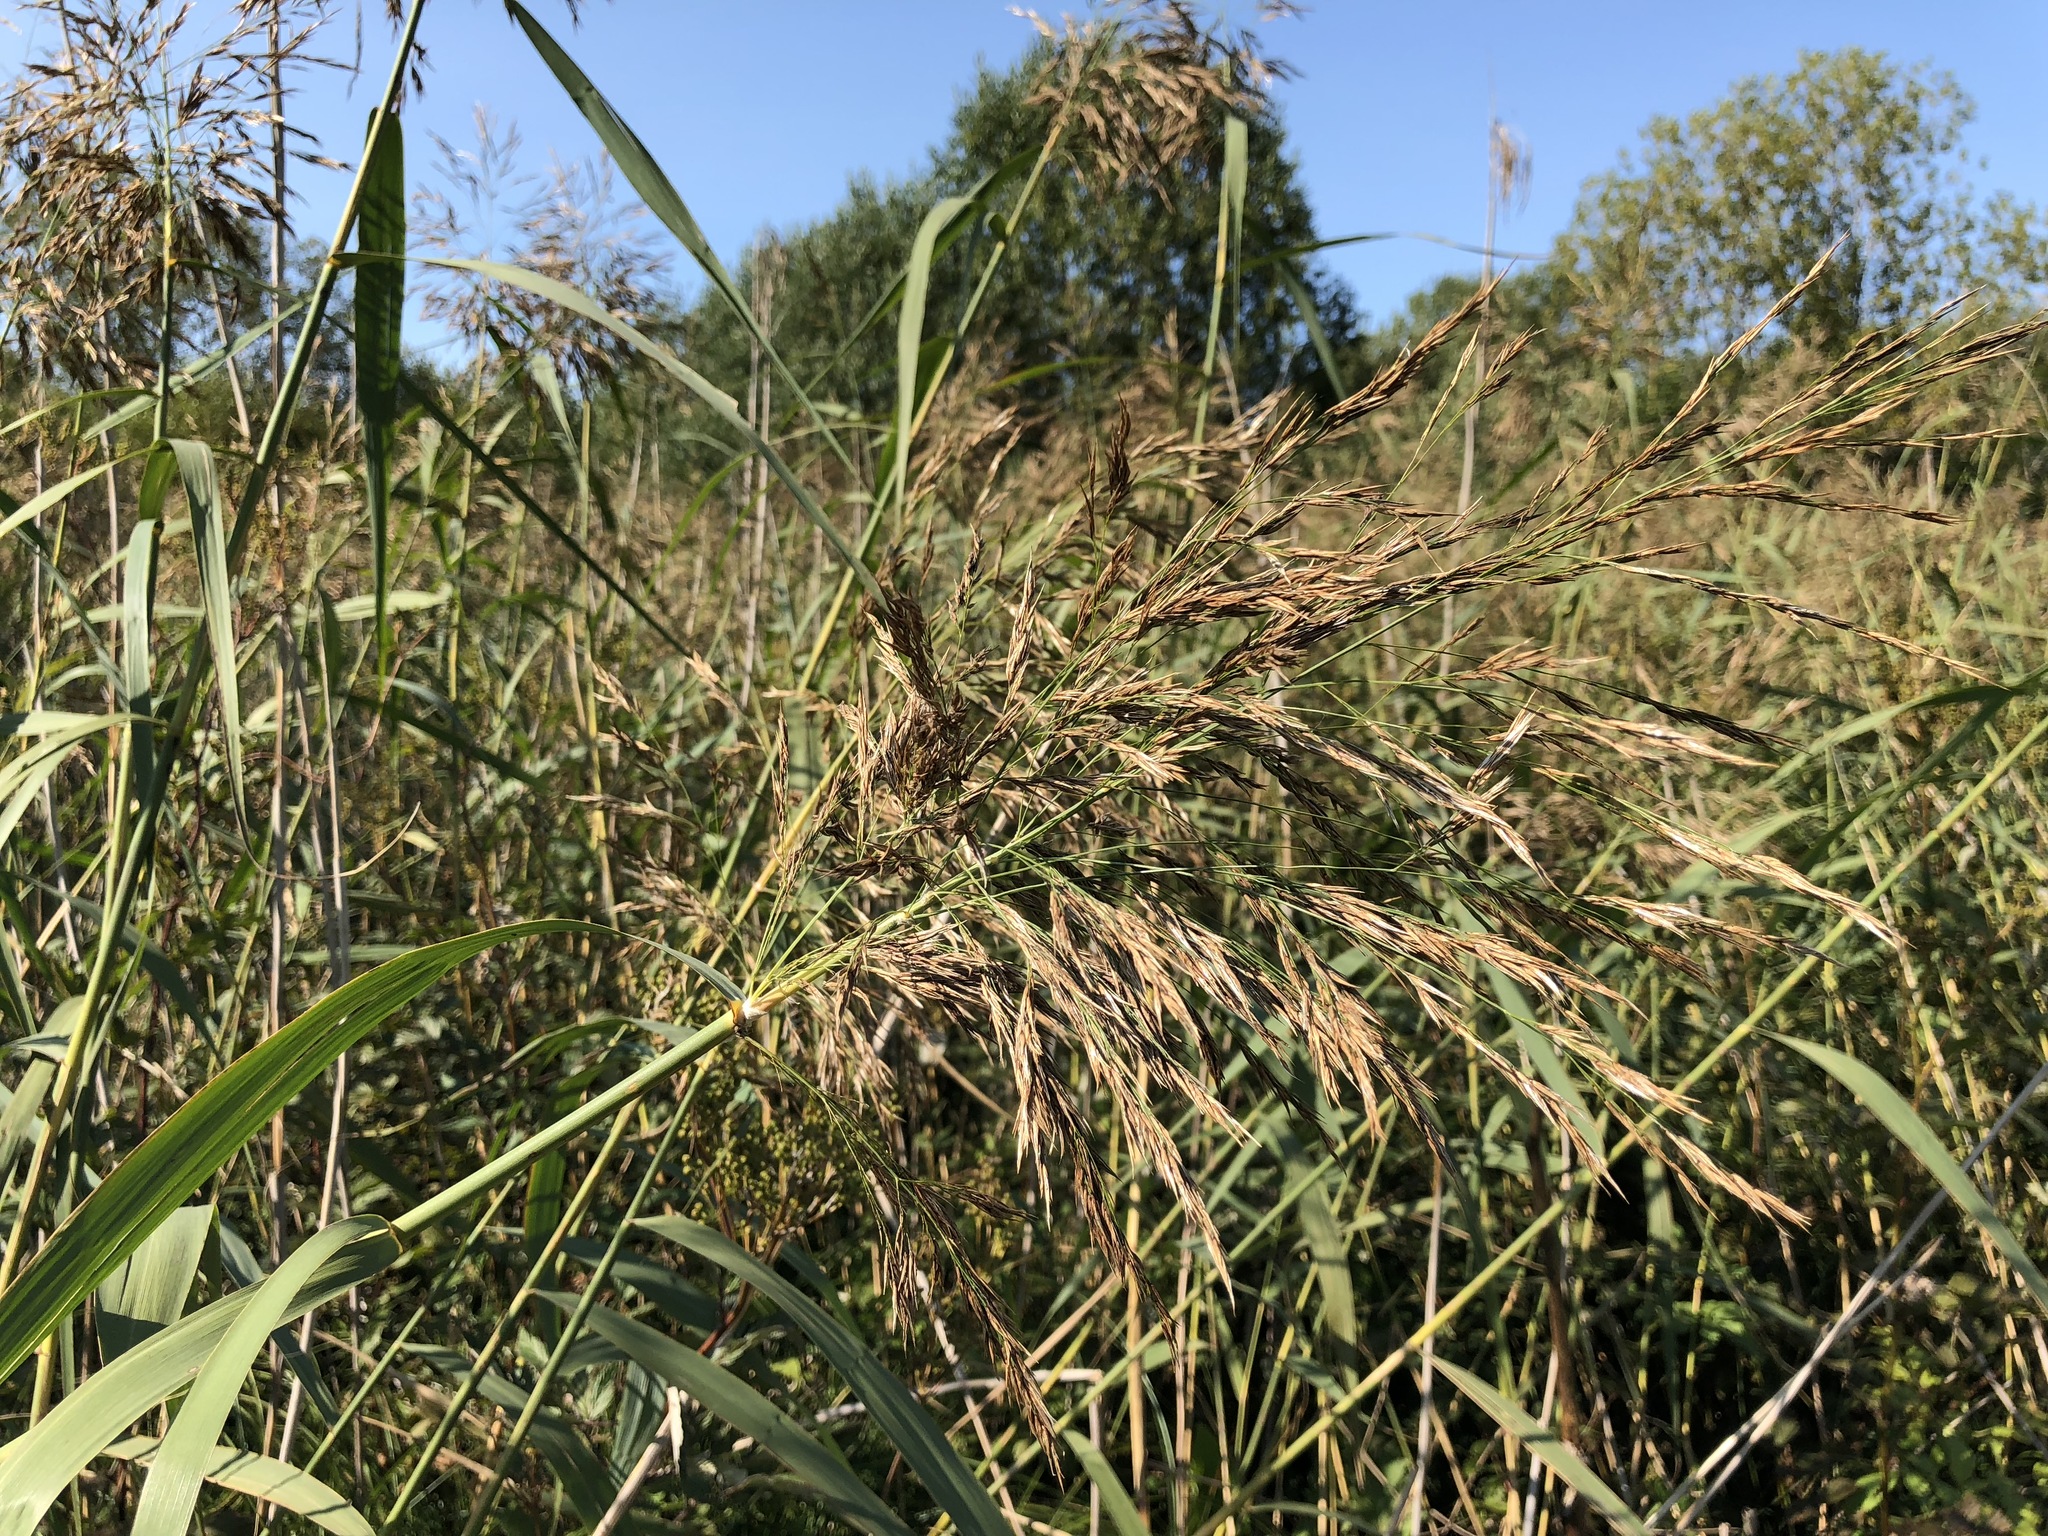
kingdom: Plantae
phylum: Tracheophyta
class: Liliopsida
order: Poales
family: Poaceae
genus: Phragmites
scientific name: Phragmites australis
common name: Common reed
